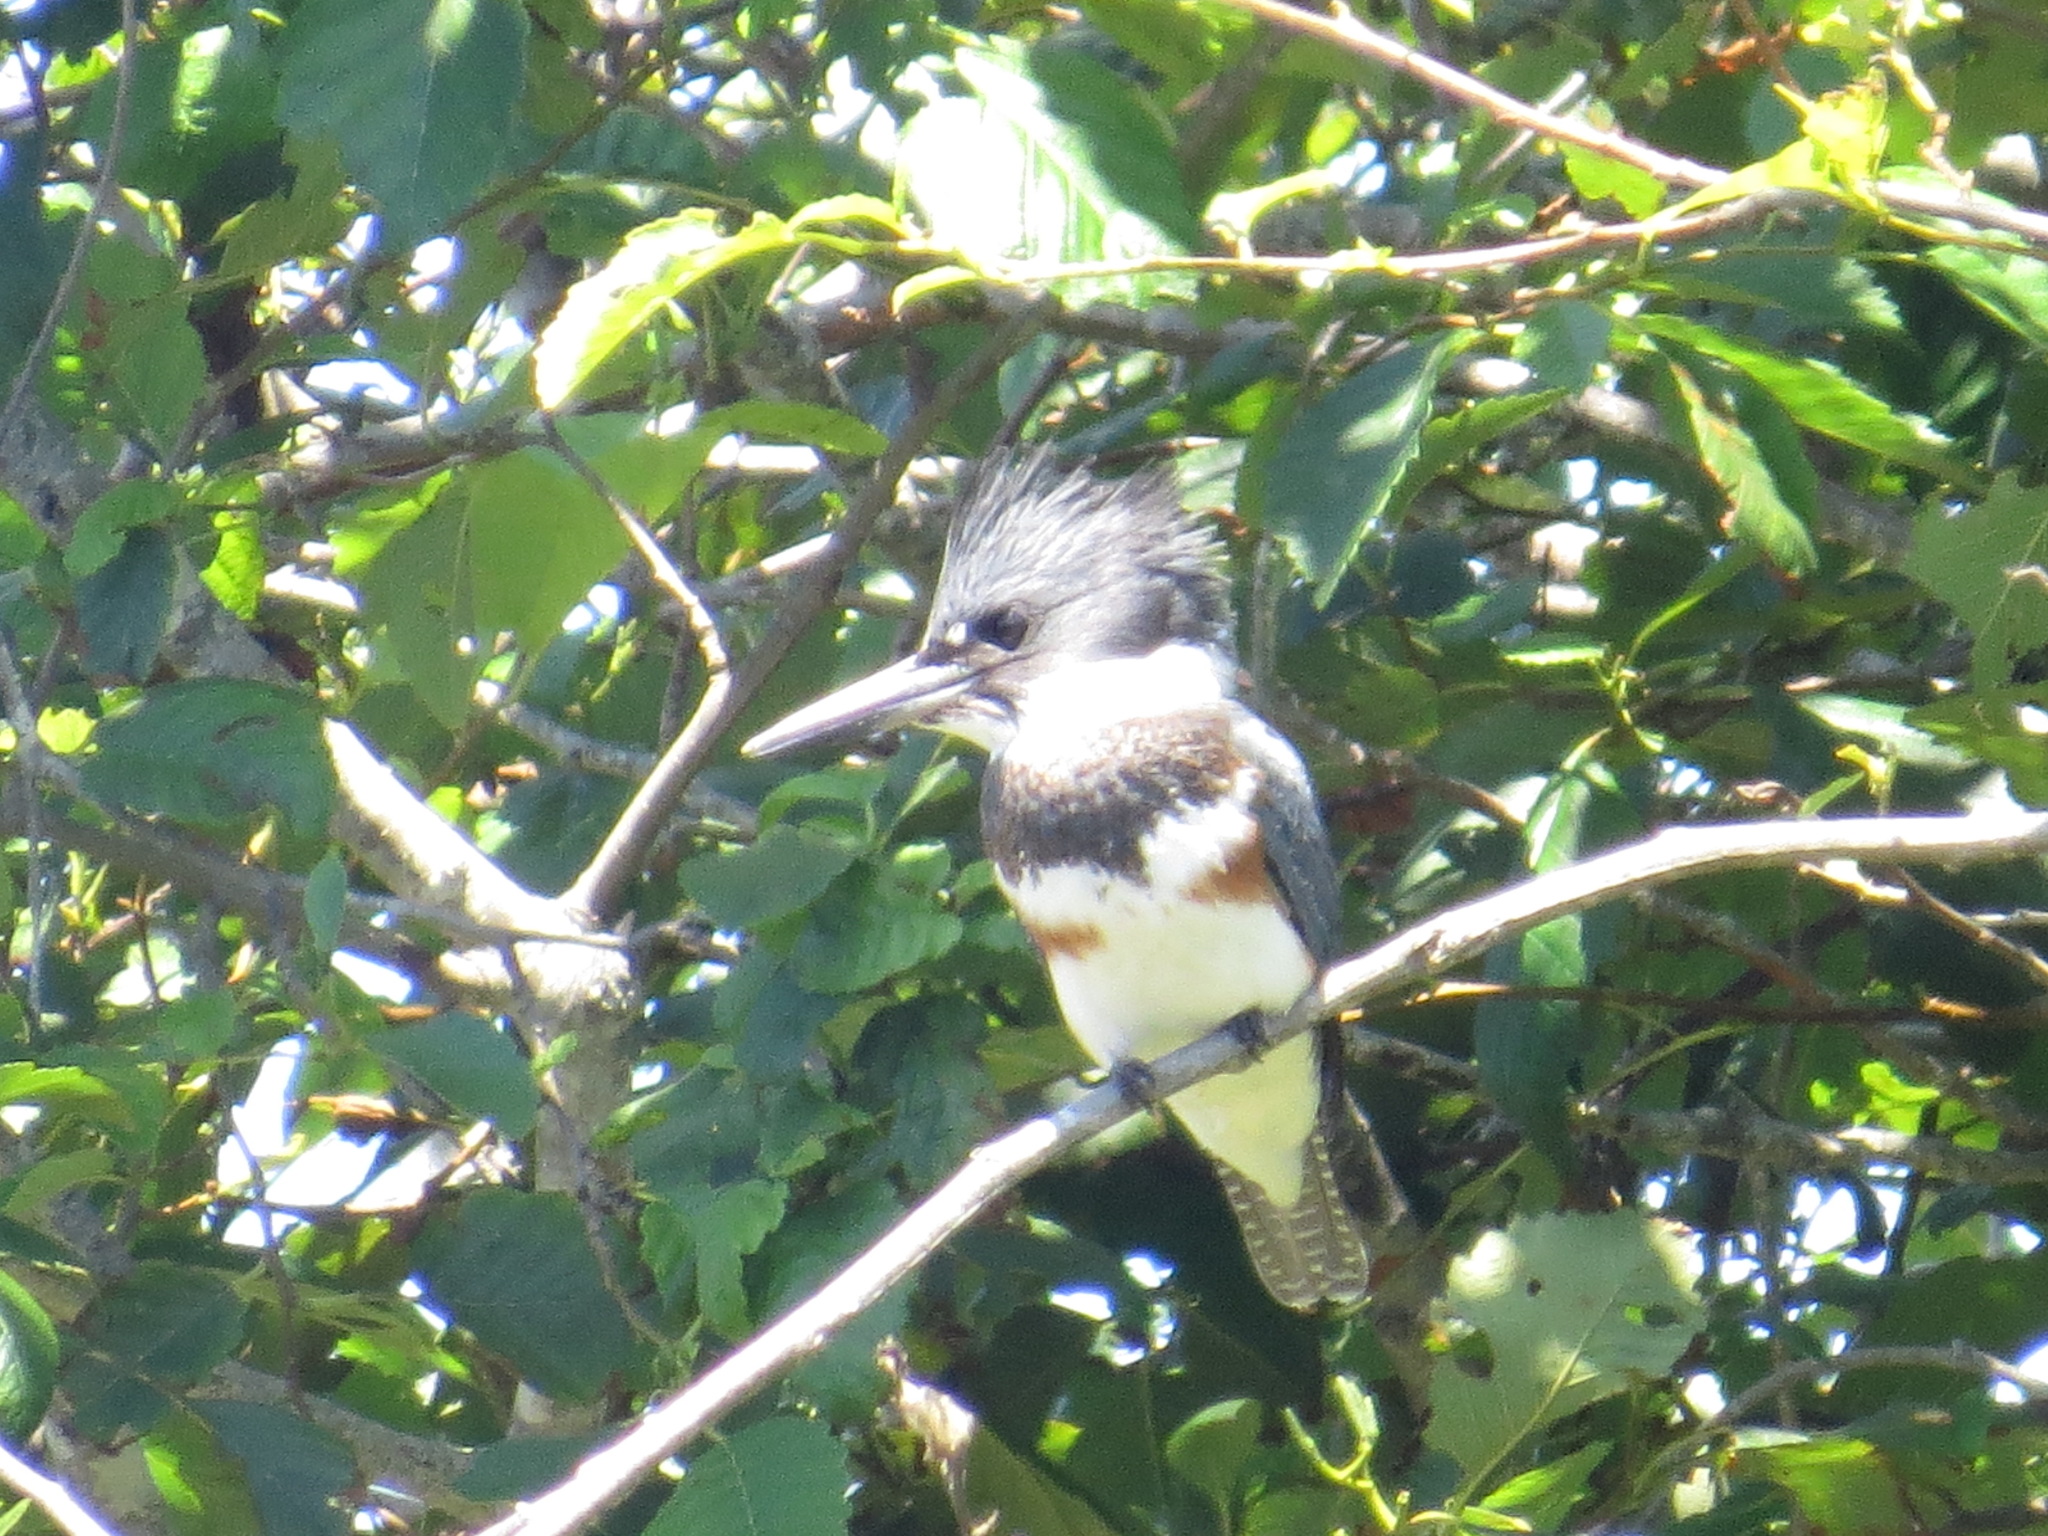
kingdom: Animalia
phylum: Chordata
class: Aves
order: Coraciiformes
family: Alcedinidae
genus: Megaceryle
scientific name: Megaceryle alcyon
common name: Belted kingfisher
